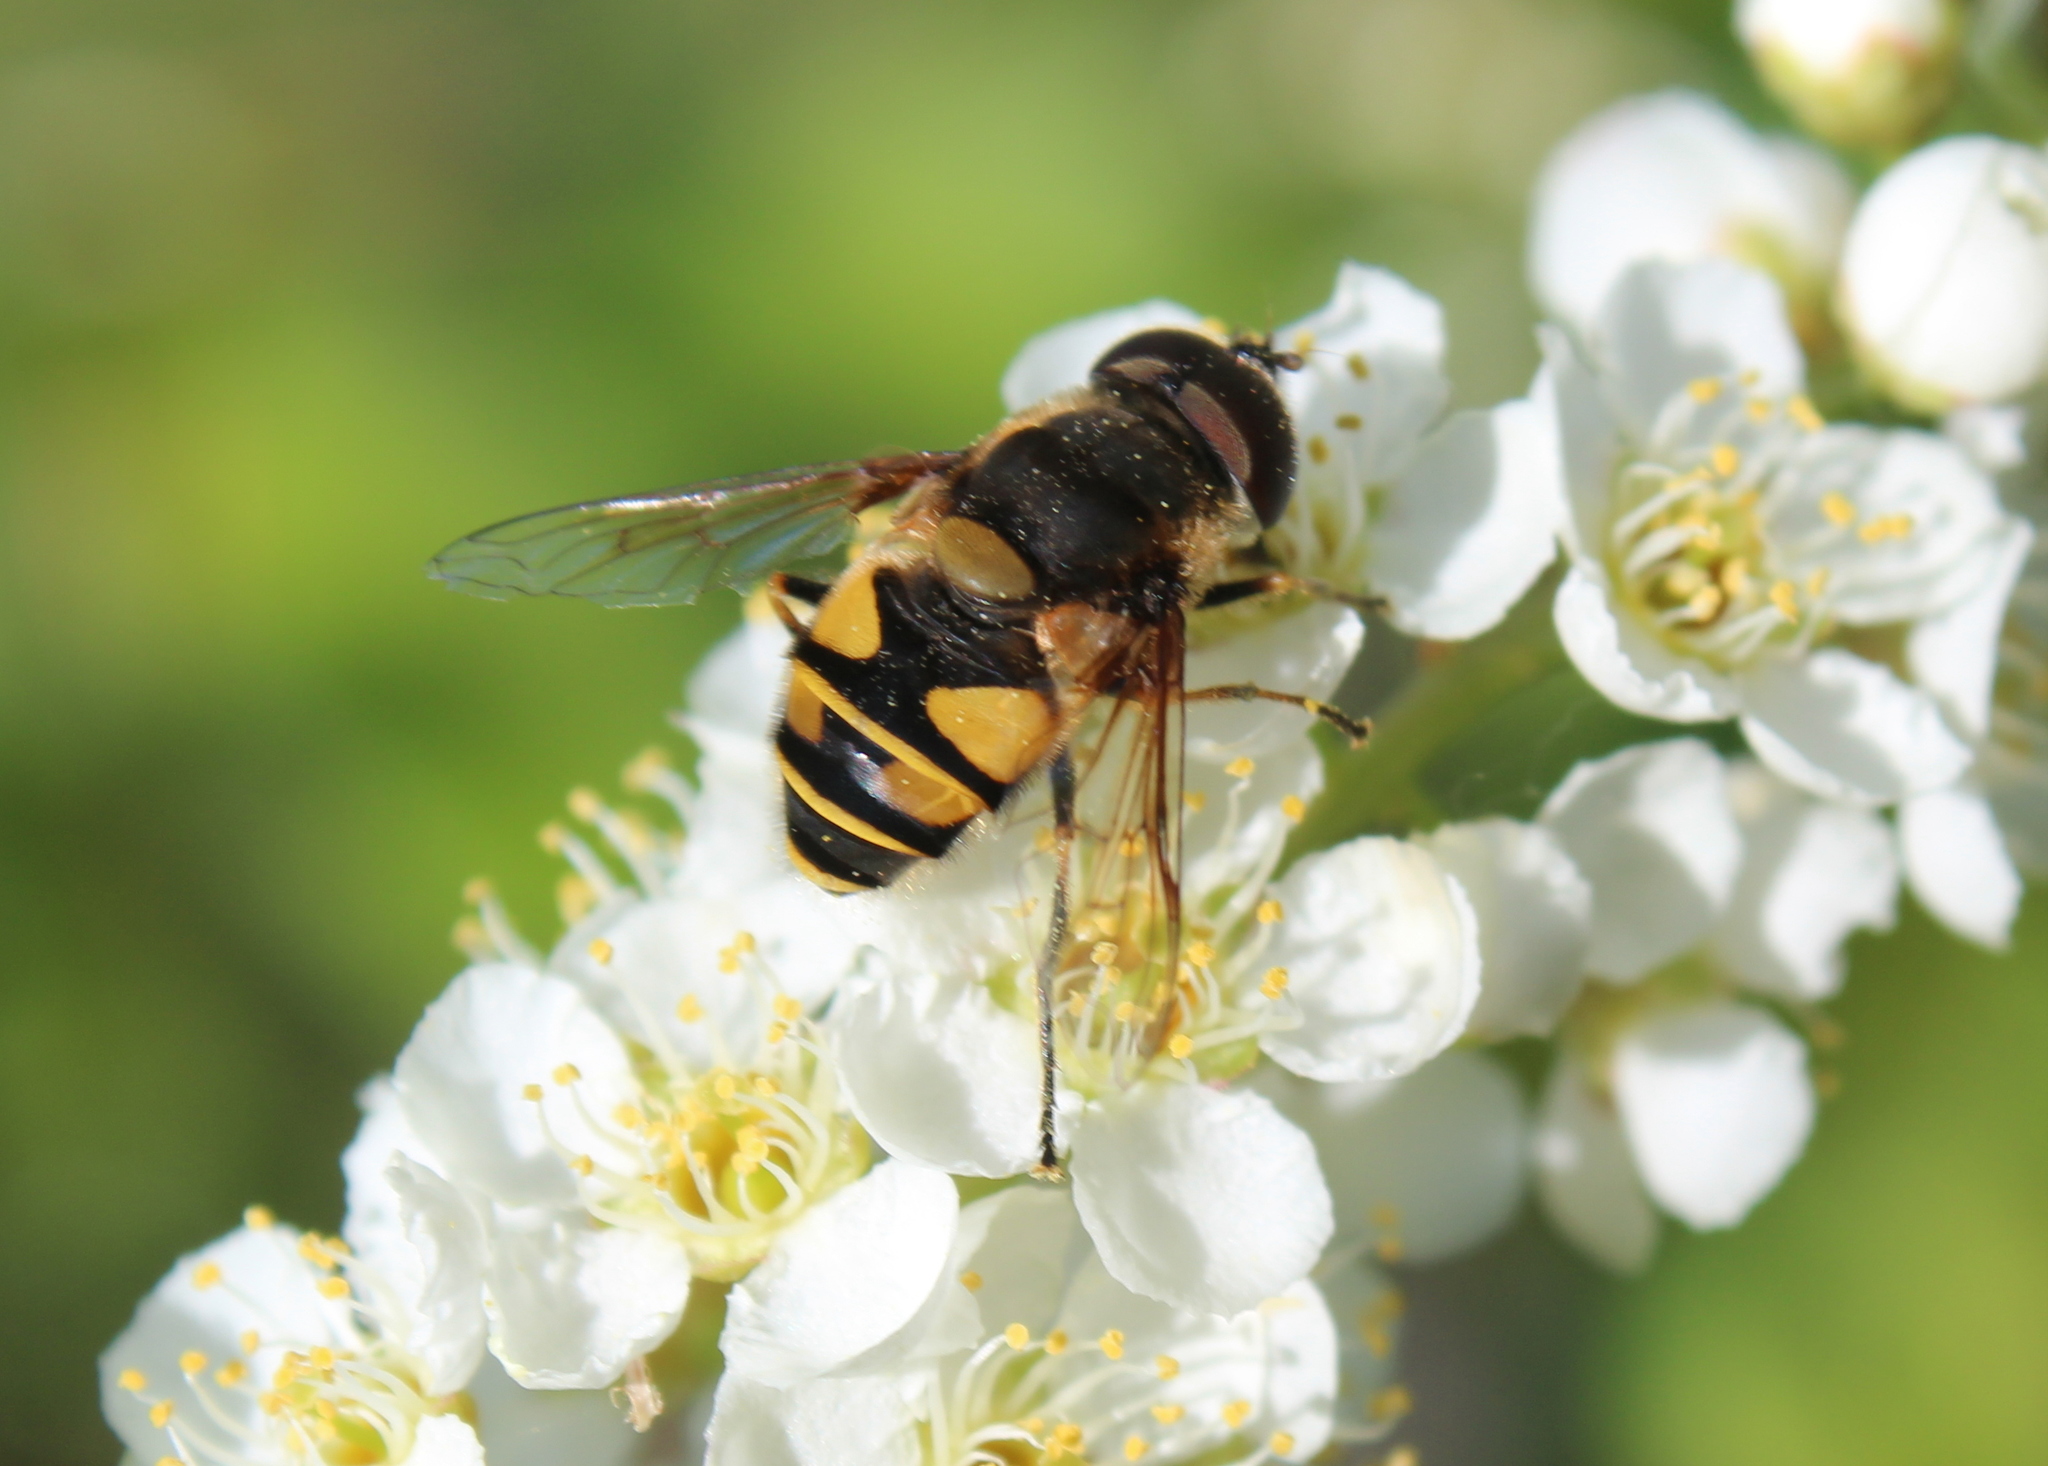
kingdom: Animalia
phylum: Arthropoda
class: Insecta
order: Diptera
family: Syrphidae
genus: Eristalis
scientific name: Eristalis transversa
